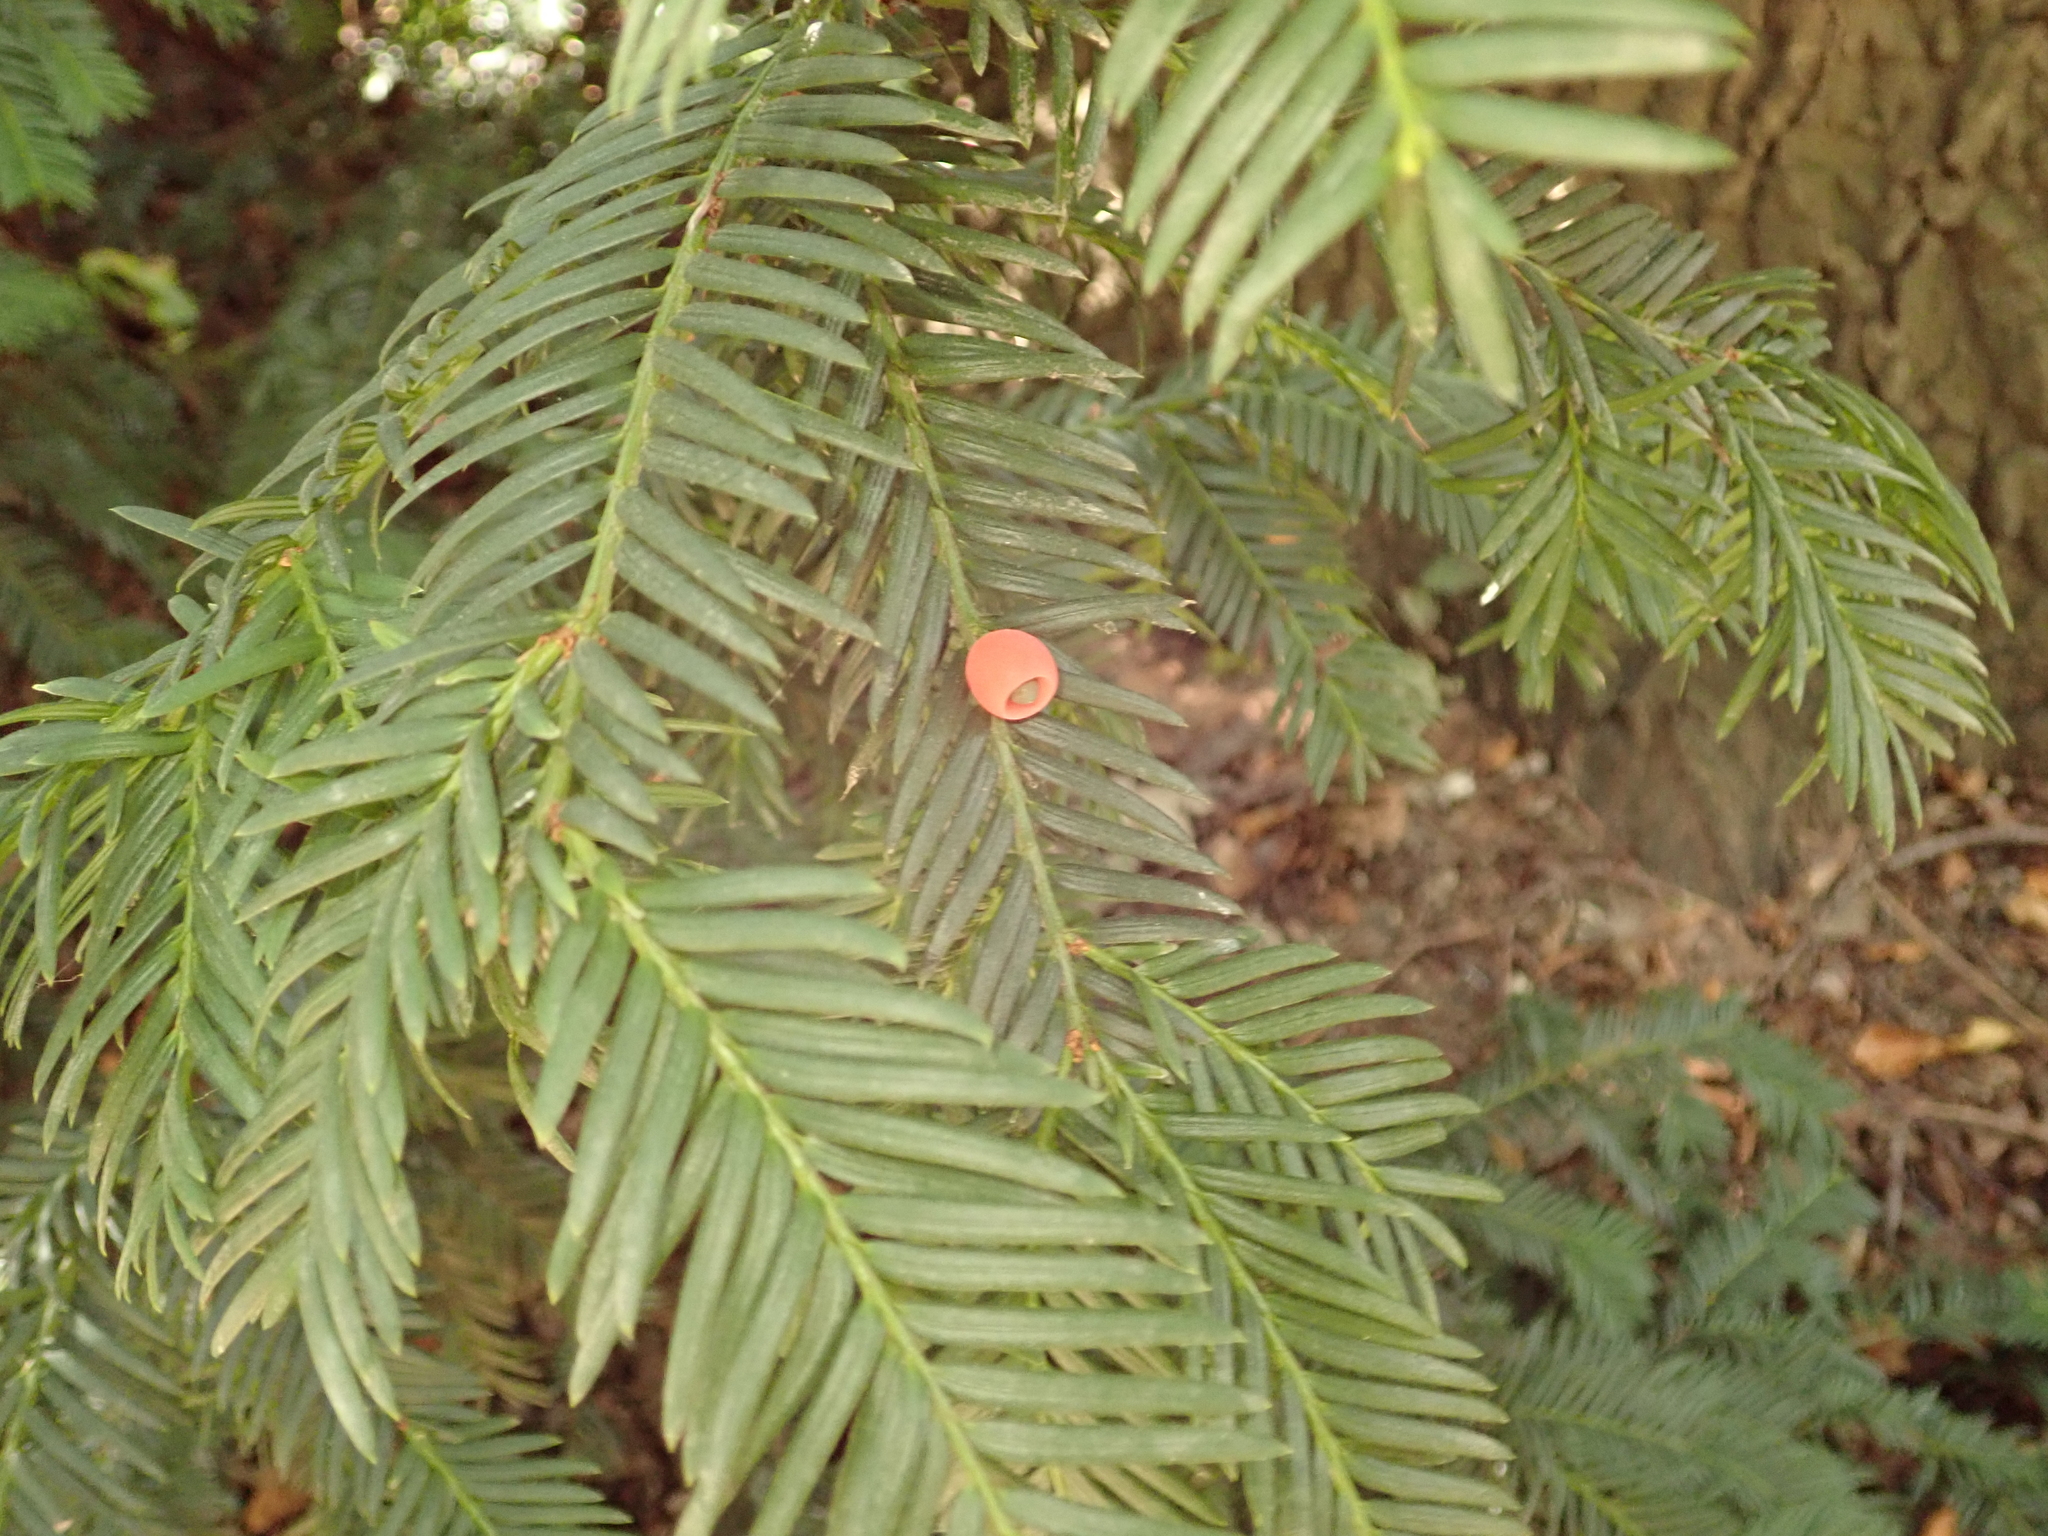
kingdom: Plantae
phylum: Tracheophyta
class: Pinopsida
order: Pinales
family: Taxaceae
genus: Taxus
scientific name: Taxus baccata
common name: Yew
